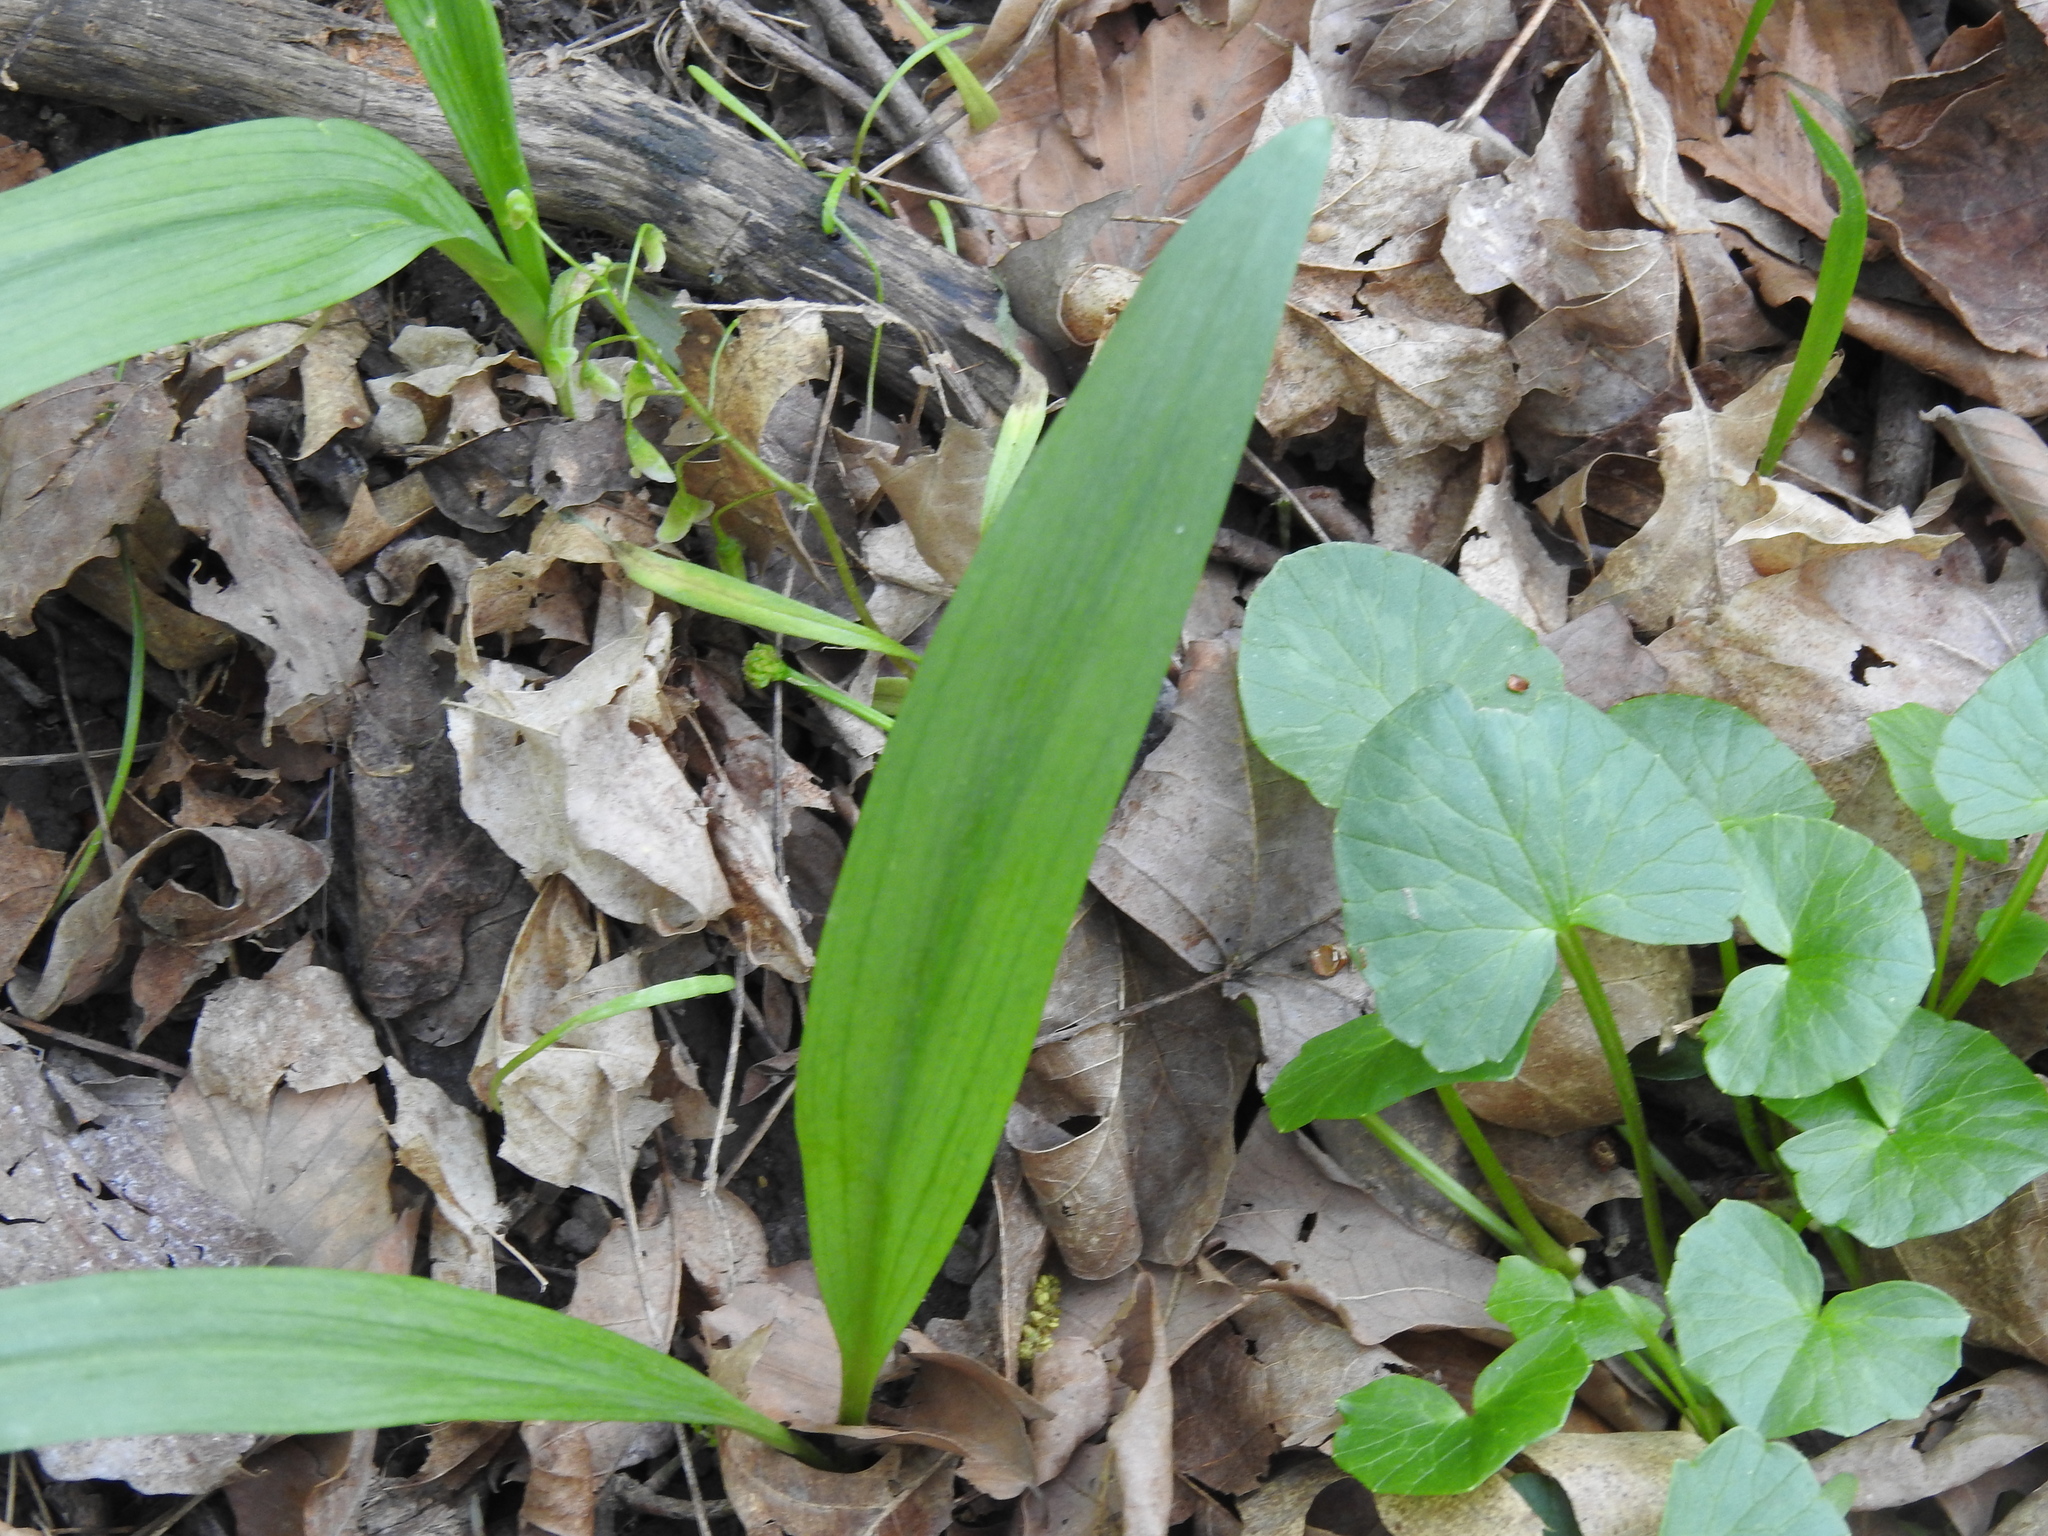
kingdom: Plantae
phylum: Tracheophyta
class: Liliopsida
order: Asparagales
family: Amaryllidaceae
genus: Allium
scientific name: Allium tricoccum
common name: Ramp
